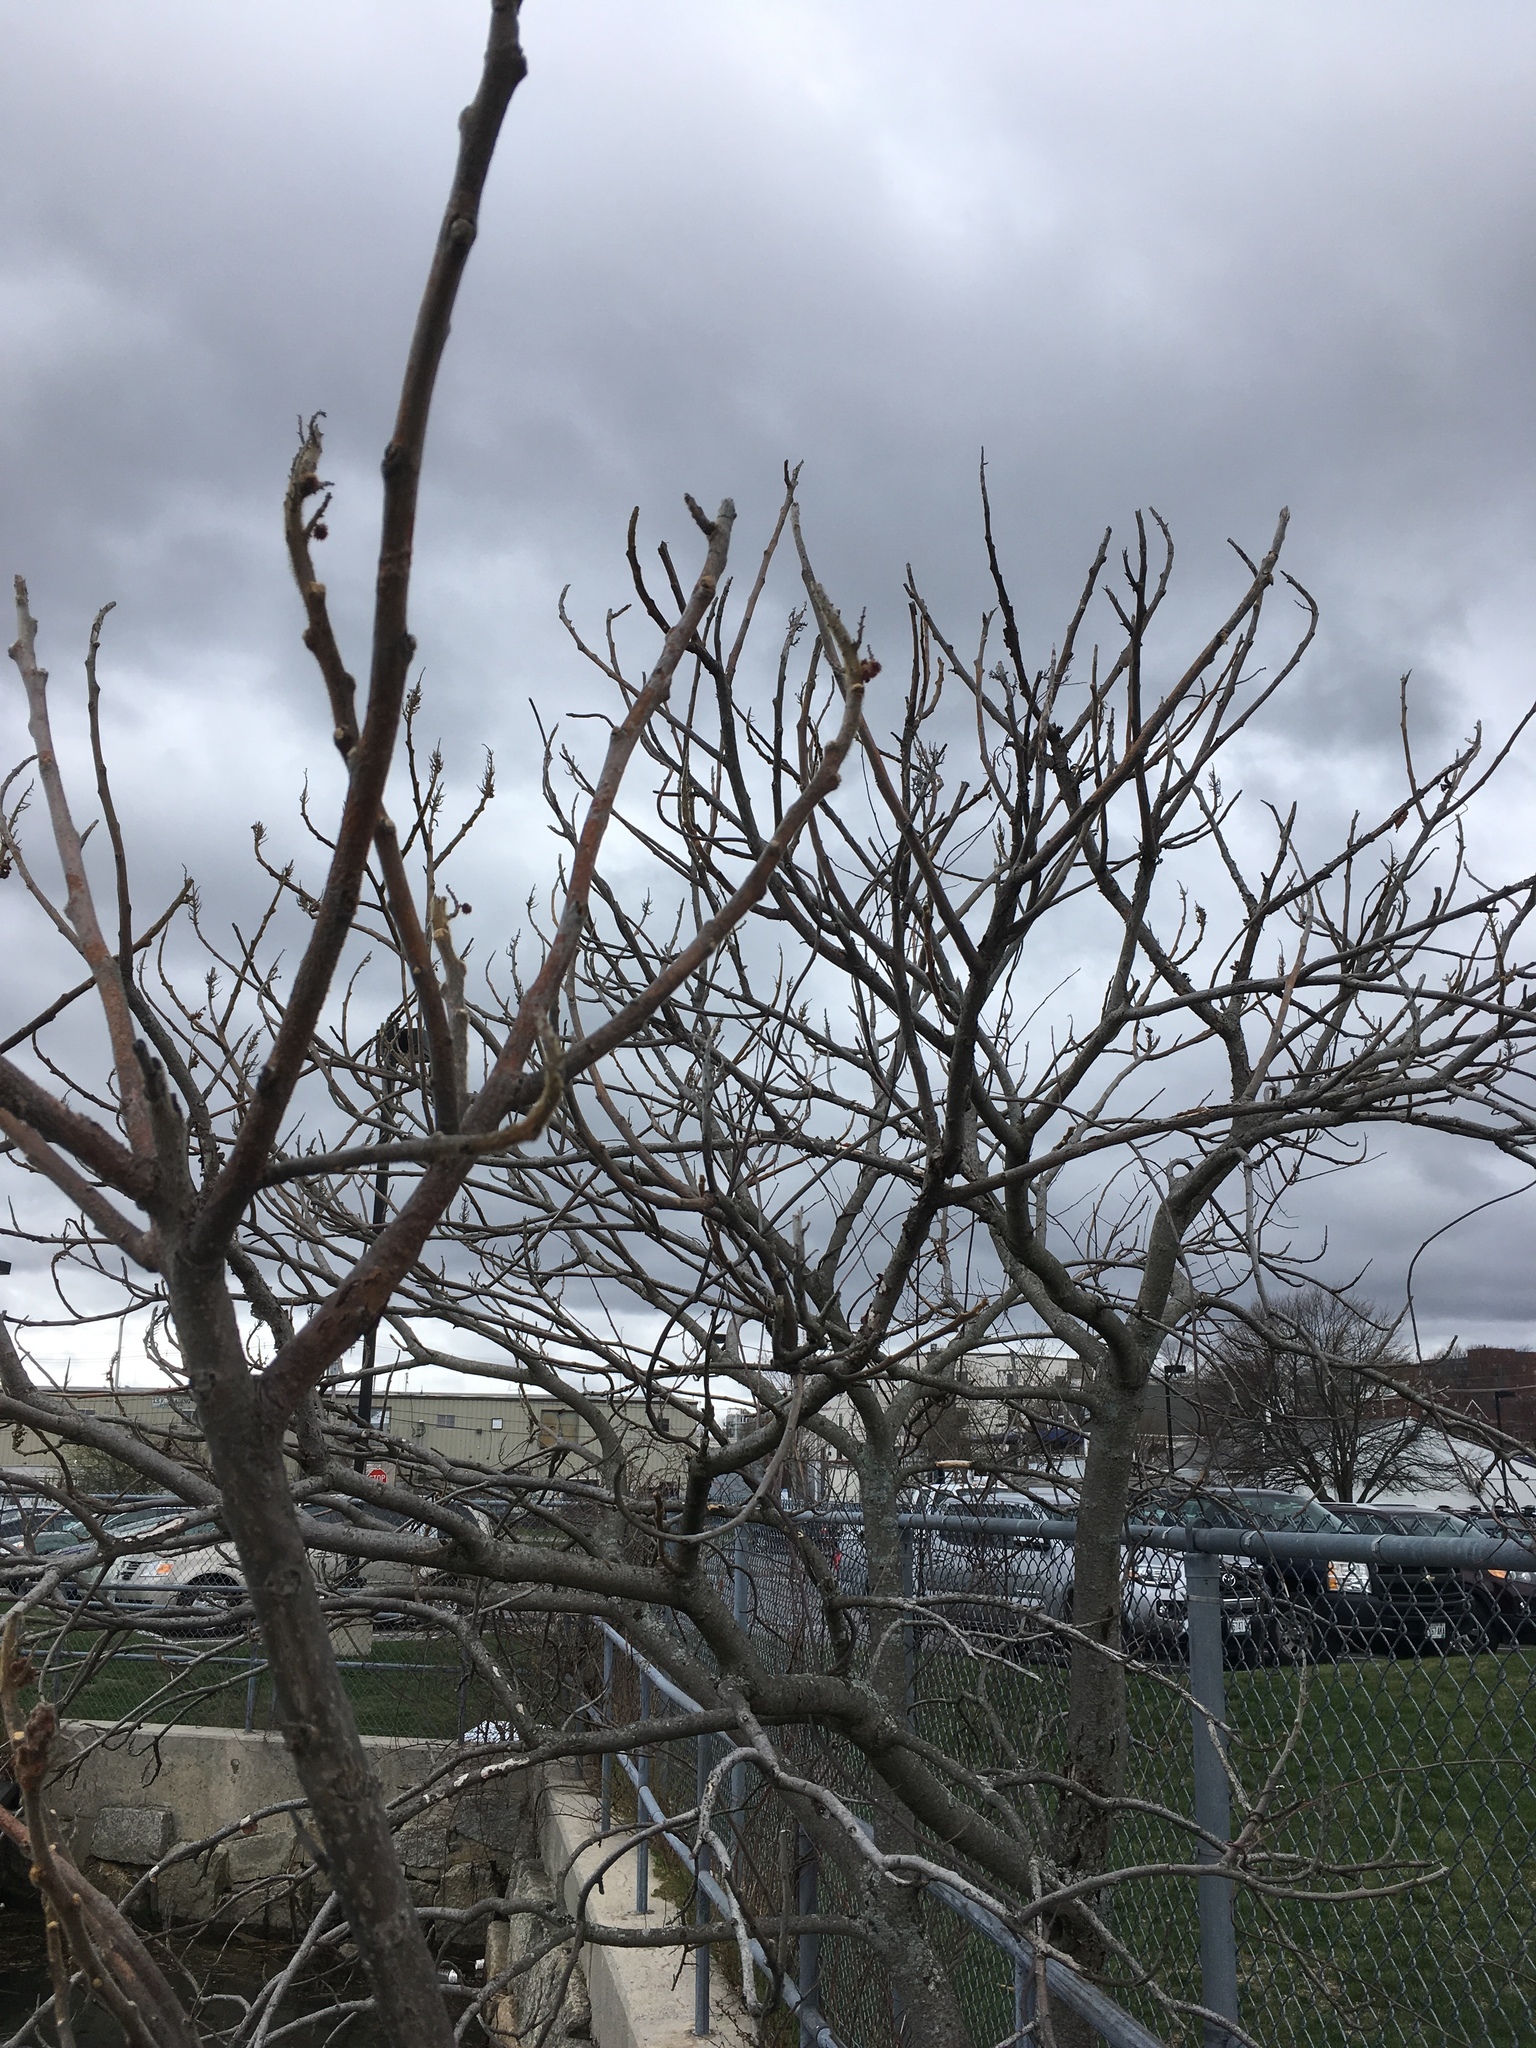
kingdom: Plantae
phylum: Tracheophyta
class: Magnoliopsida
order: Sapindales
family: Anacardiaceae
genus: Rhus
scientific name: Rhus typhina
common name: Staghorn sumac
